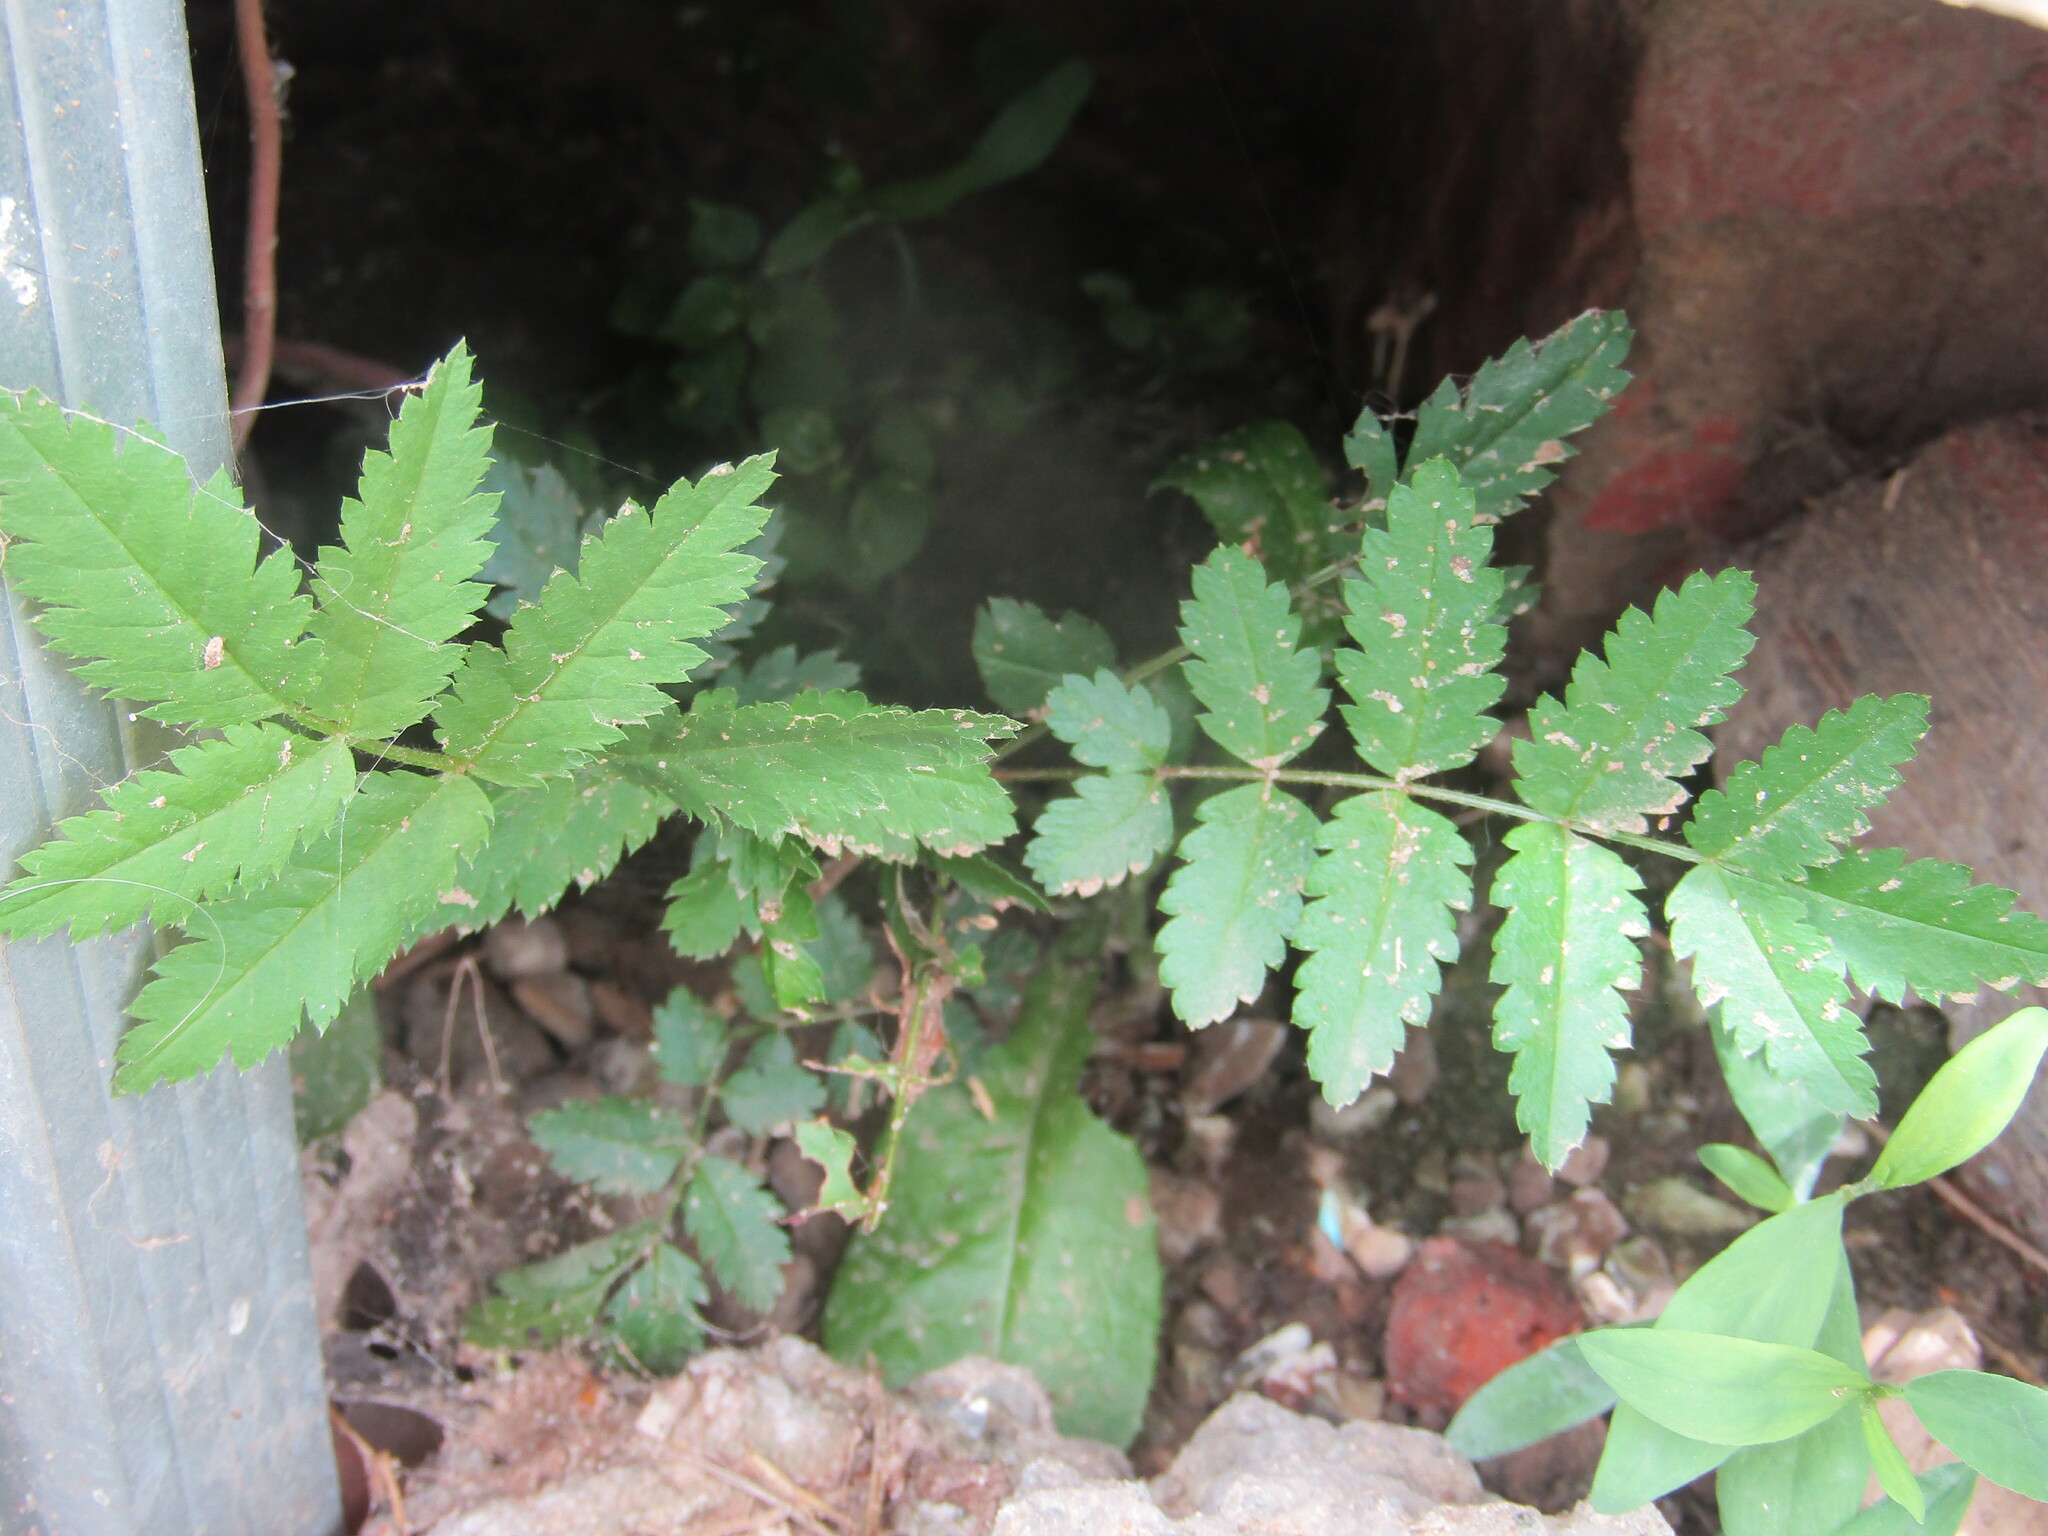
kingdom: Plantae
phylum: Tracheophyta
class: Magnoliopsida
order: Rosales
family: Rosaceae
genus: Sorbus
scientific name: Sorbus aucuparia
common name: Rowan
